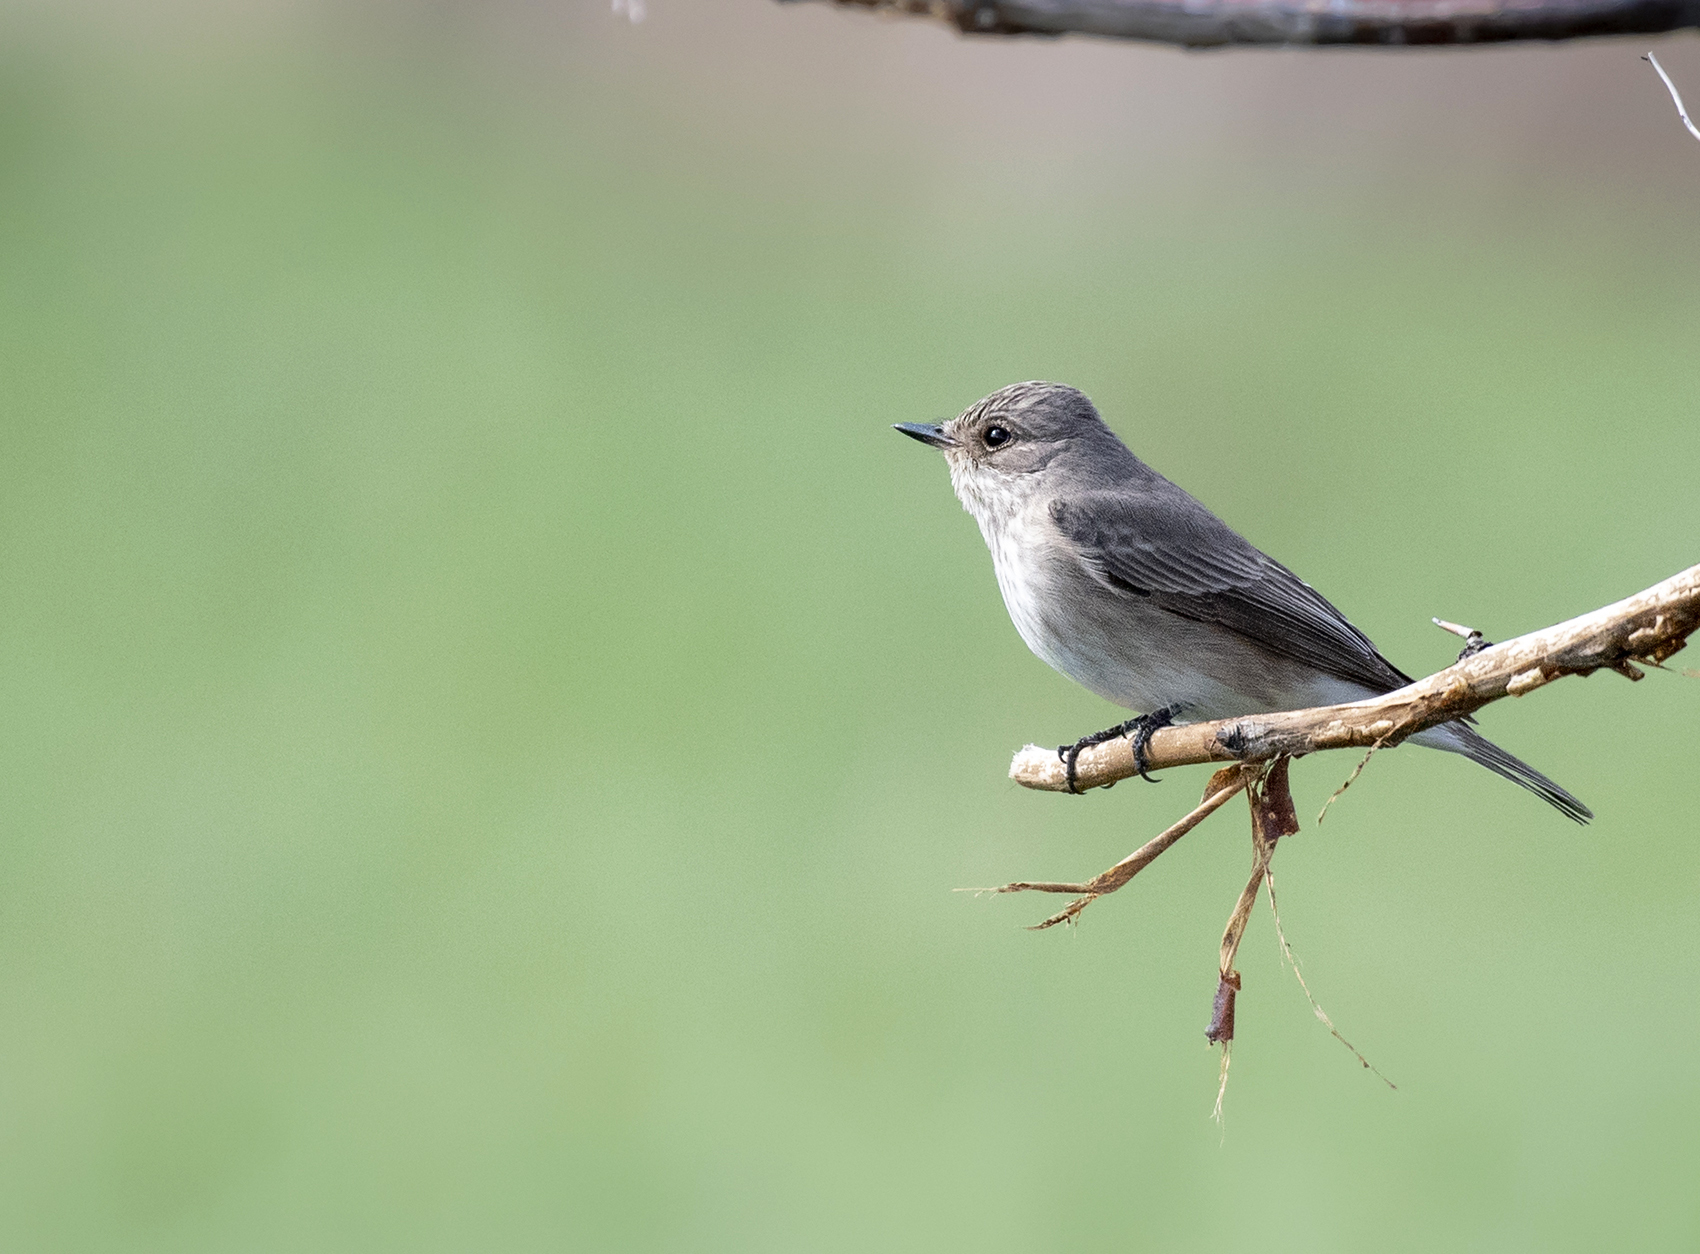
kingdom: Animalia
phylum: Chordata
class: Aves
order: Passeriformes
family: Muscicapidae
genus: Muscicapa
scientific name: Muscicapa striata
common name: Spotted flycatcher
